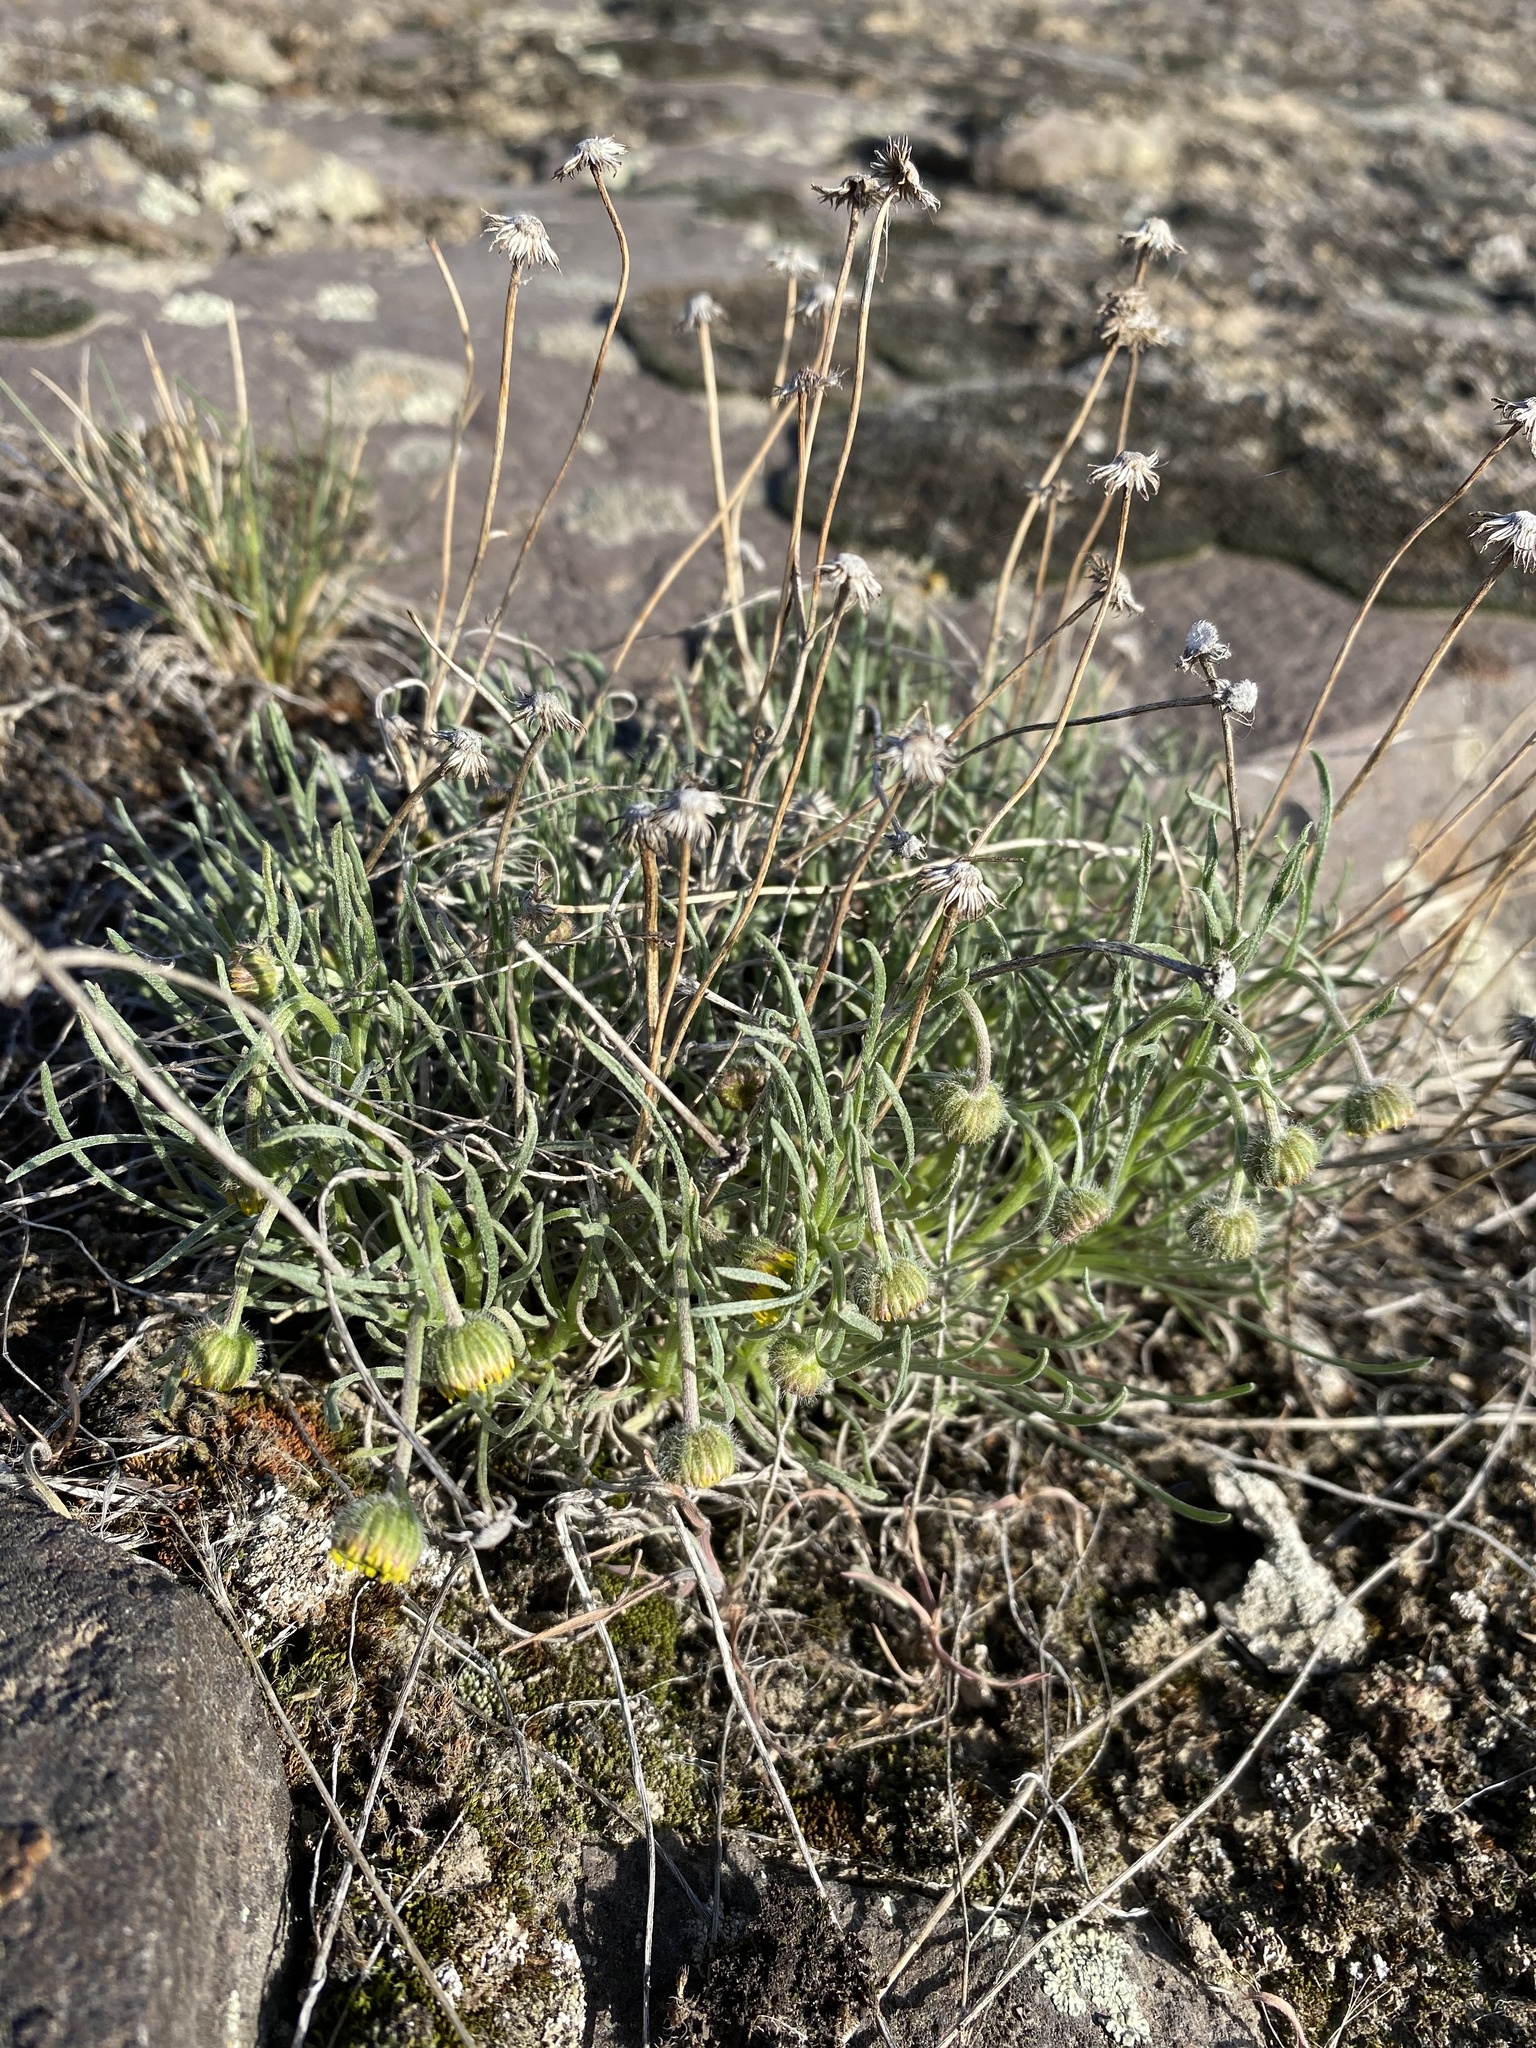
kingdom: Plantae
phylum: Tracheophyta
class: Magnoliopsida
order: Asterales
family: Asteraceae
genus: Erigeron
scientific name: Erigeron linearis
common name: Desert yellow fleabane
